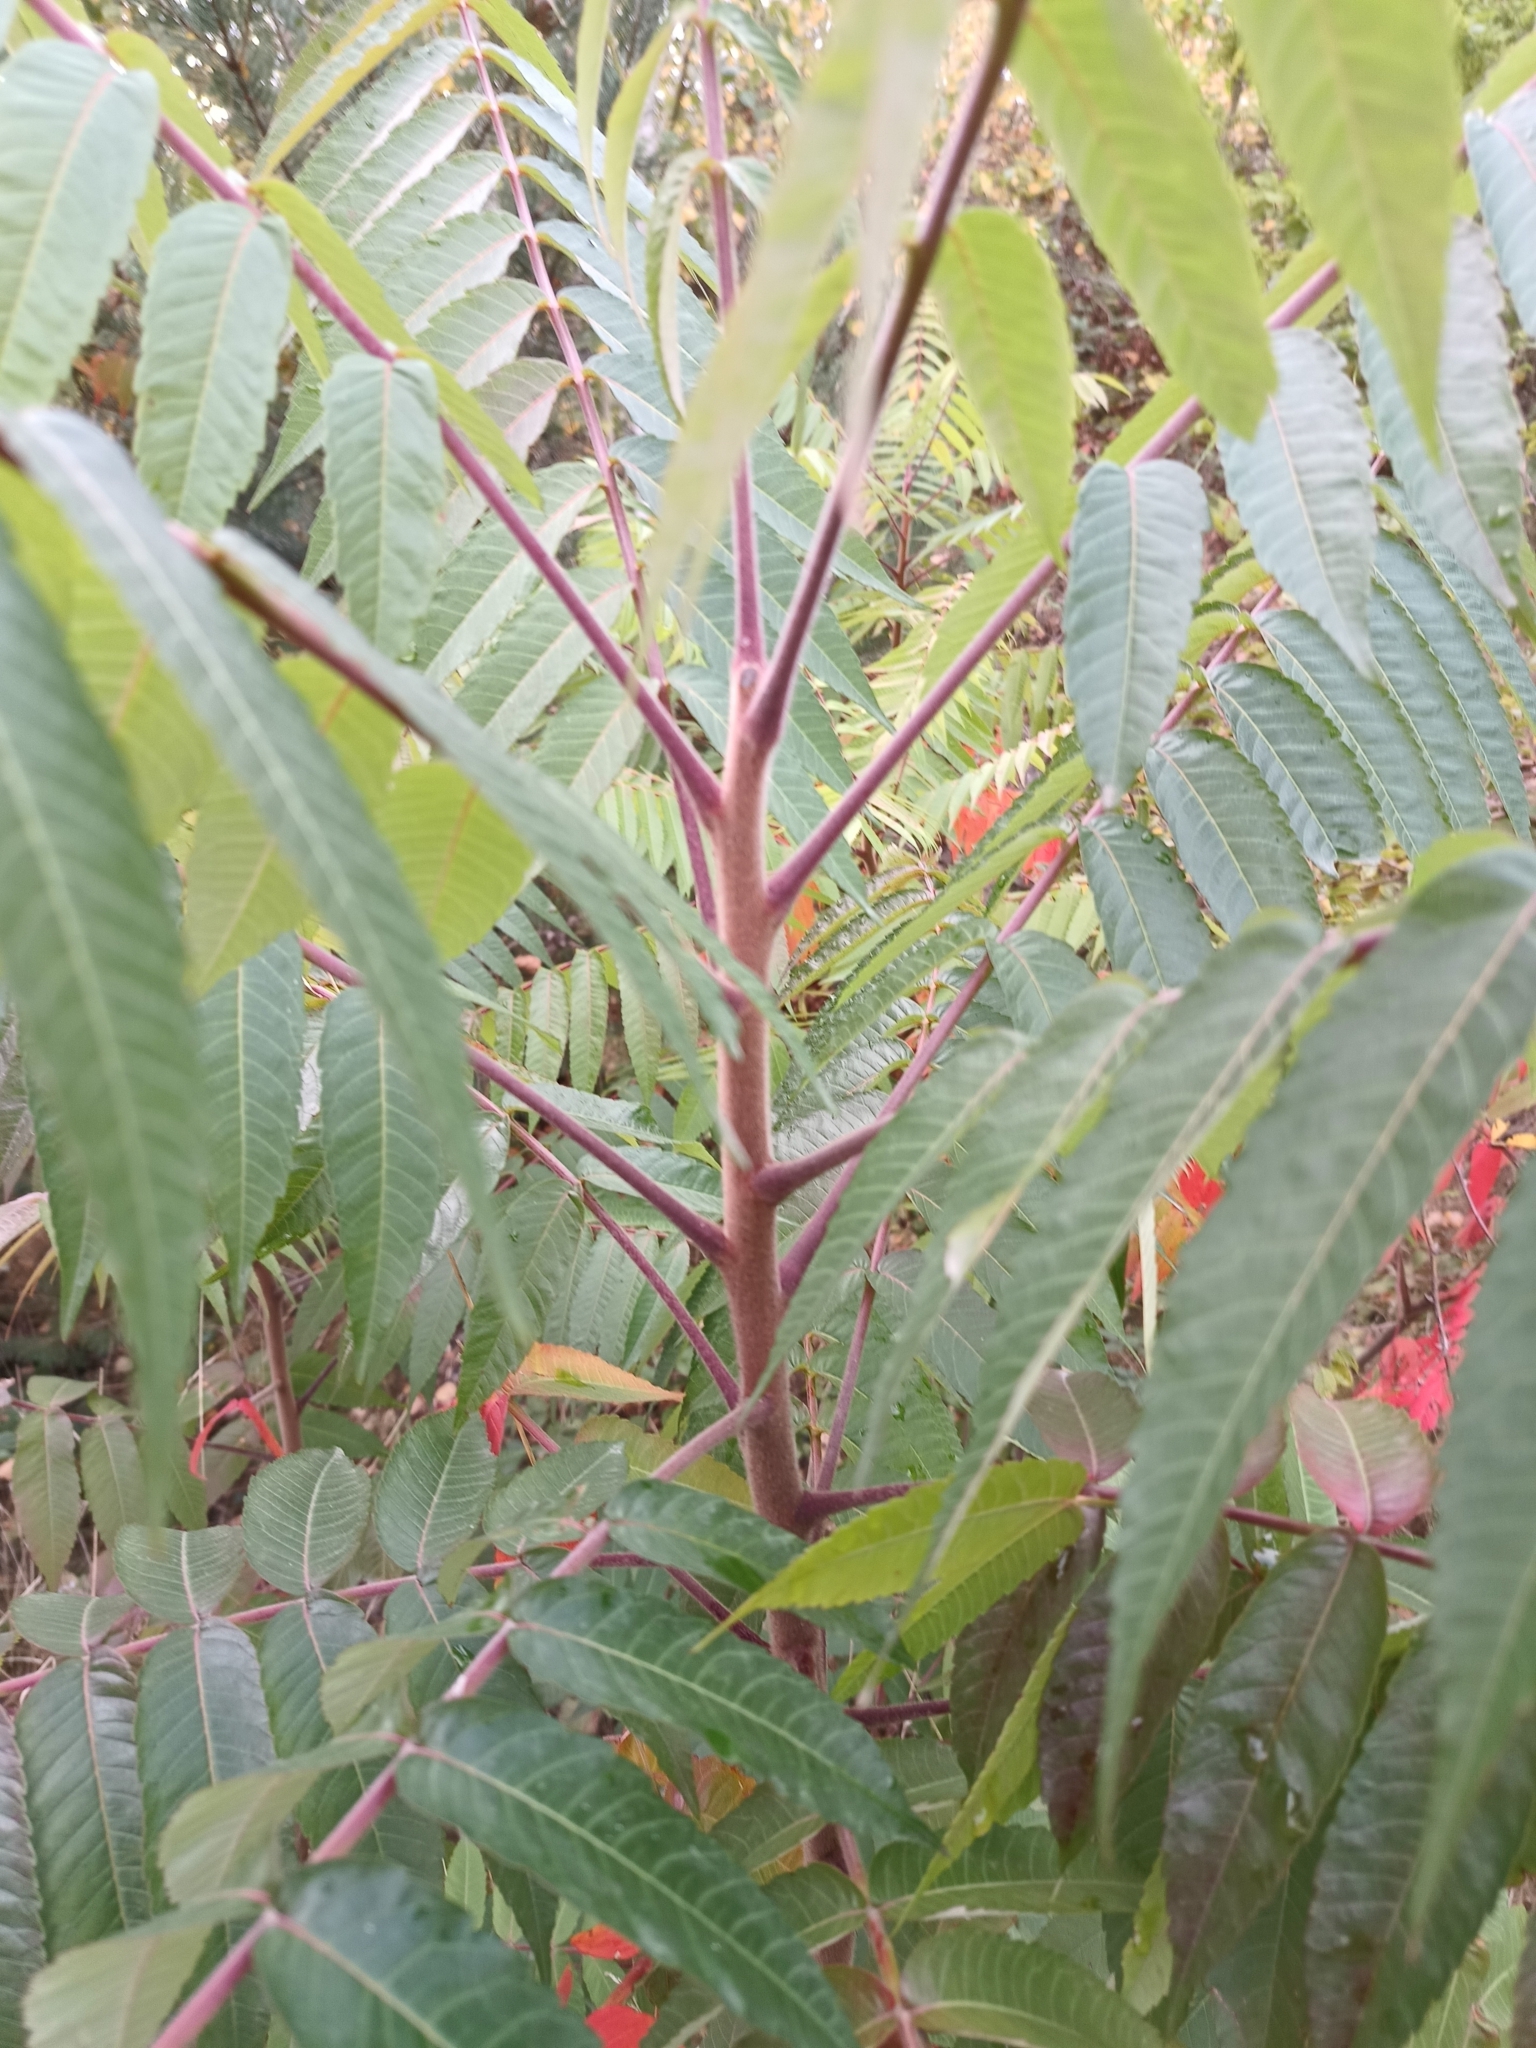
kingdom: Plantae
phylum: Tracheophyta
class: Magnoliopsida
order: Sapindales
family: Anacardiaceae
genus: Rhus
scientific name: Rhus typhina
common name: Staghorn sumac
